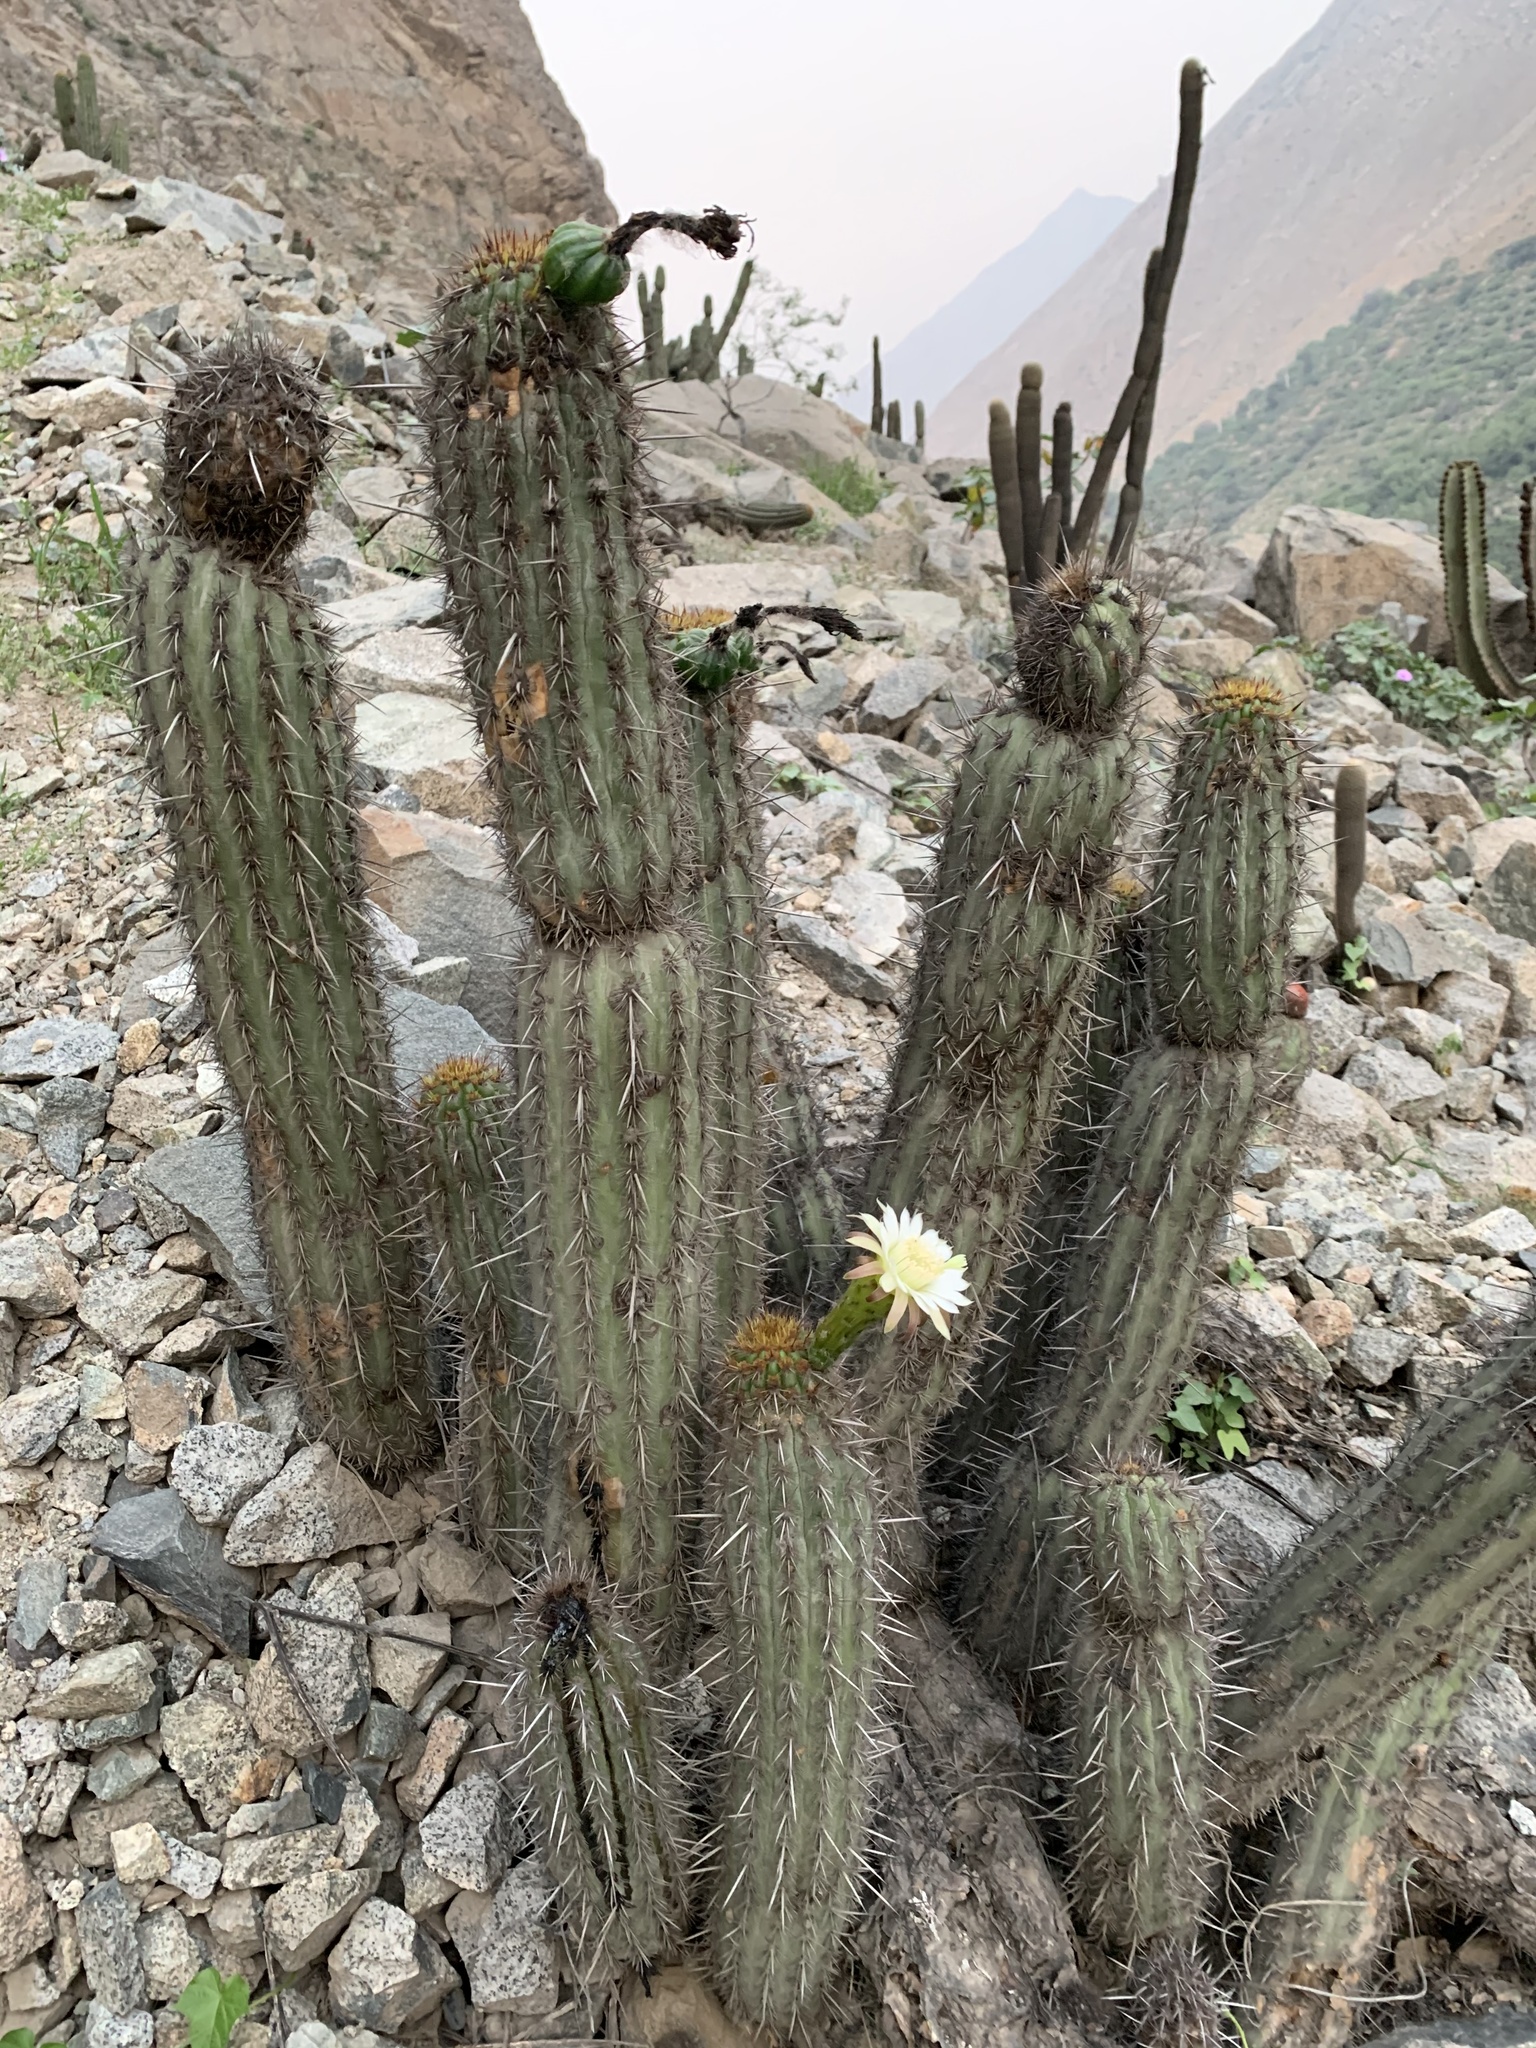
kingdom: Plantae
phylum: Tracheophyta
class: Magnoliopsida
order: Caryophyllales
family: Cactaceae
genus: Haageocereus
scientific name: Haageocereus acranthus
